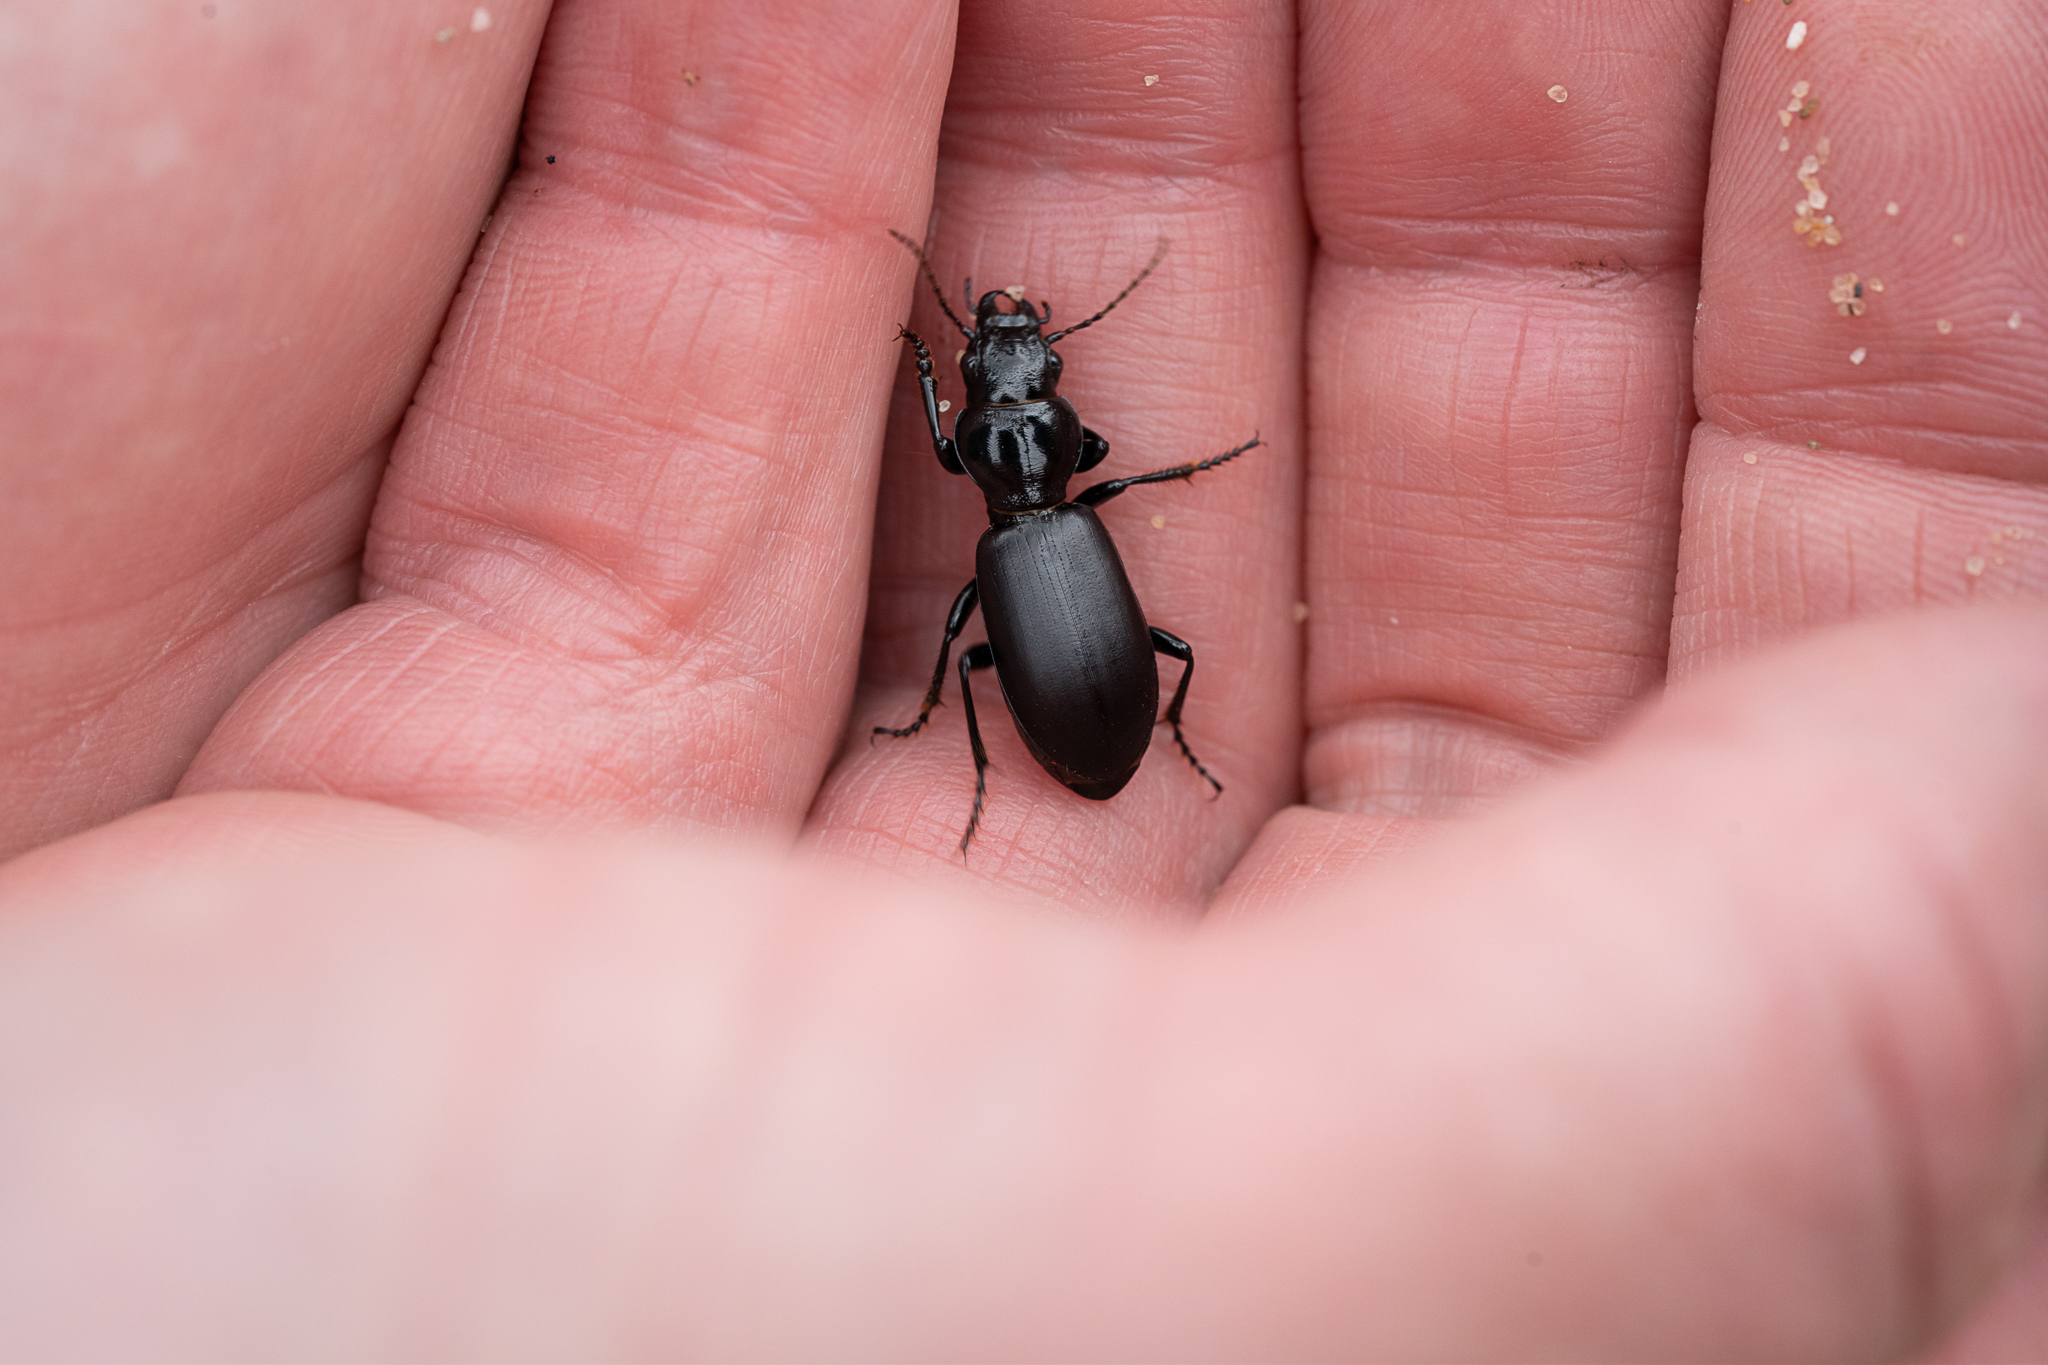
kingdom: Animalia
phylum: Arthropoda
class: Insecta
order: Coleoptera
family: Carabidae
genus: Broscus
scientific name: Broscus cephalotes
